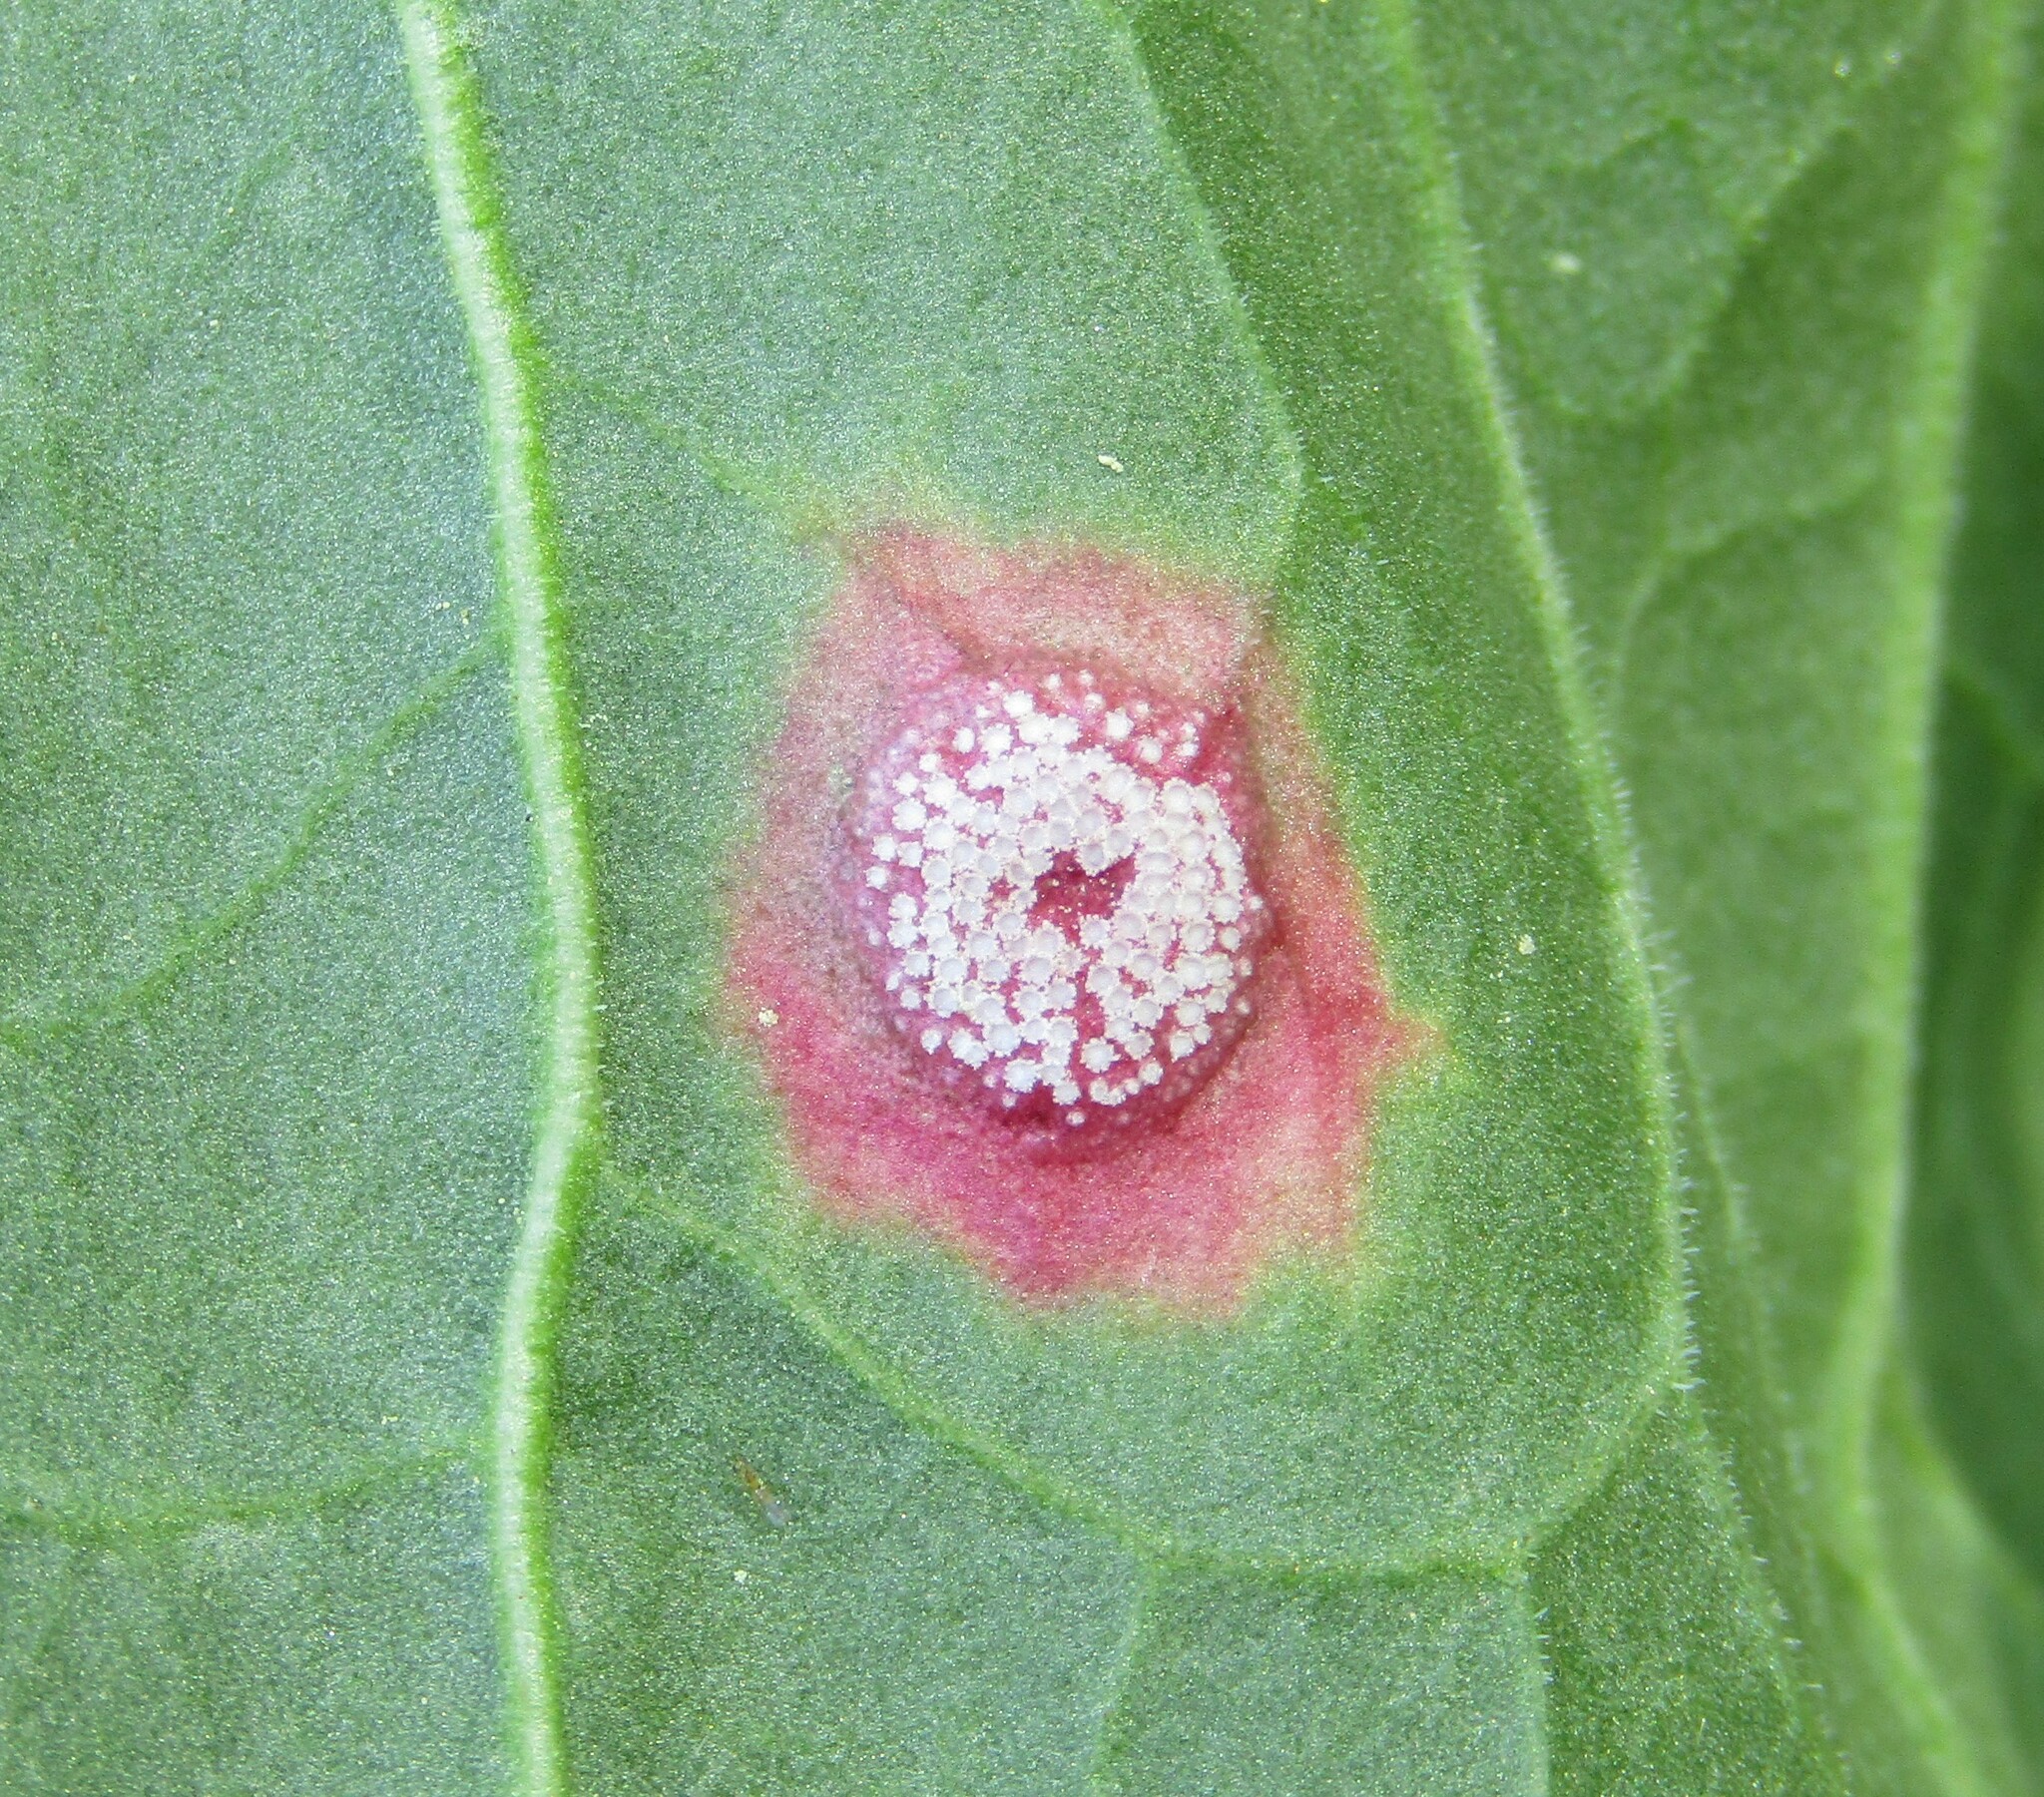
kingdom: Fungi
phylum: Basidiomycota
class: Pucciniomycetes
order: Pucciniales
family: Pucciniaceae
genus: Puccinia
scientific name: Puccinia phragmitis
